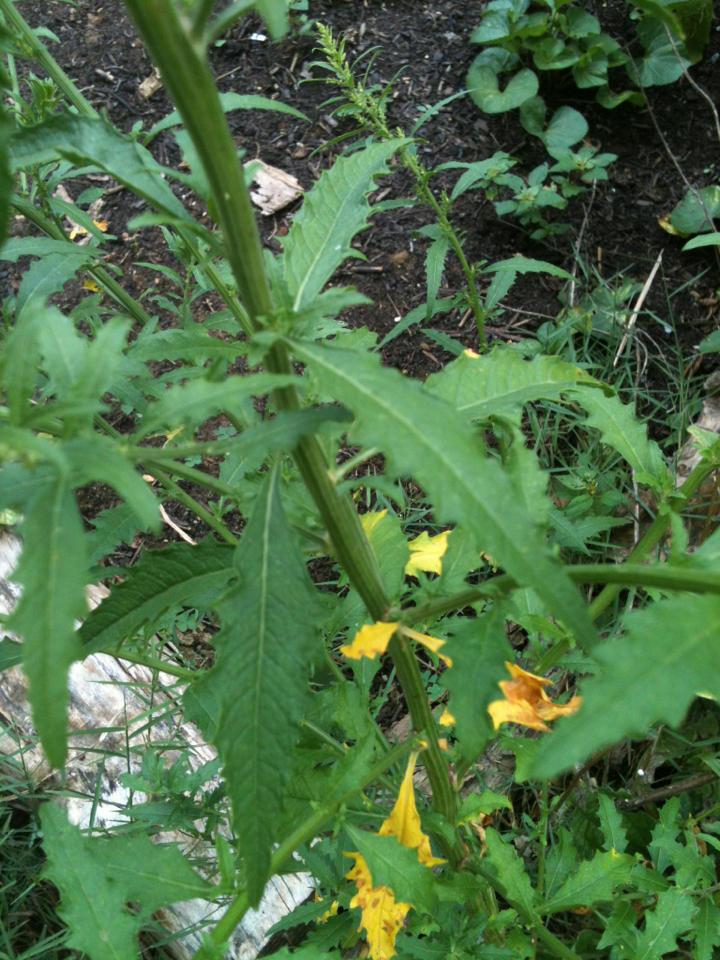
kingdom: Plantae
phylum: Tracheophyta
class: Magnoliopsida
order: Caryophyllales
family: Amaranthaceae
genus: Dysphania
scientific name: Dysphania ambrosioides
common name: Wormseed
